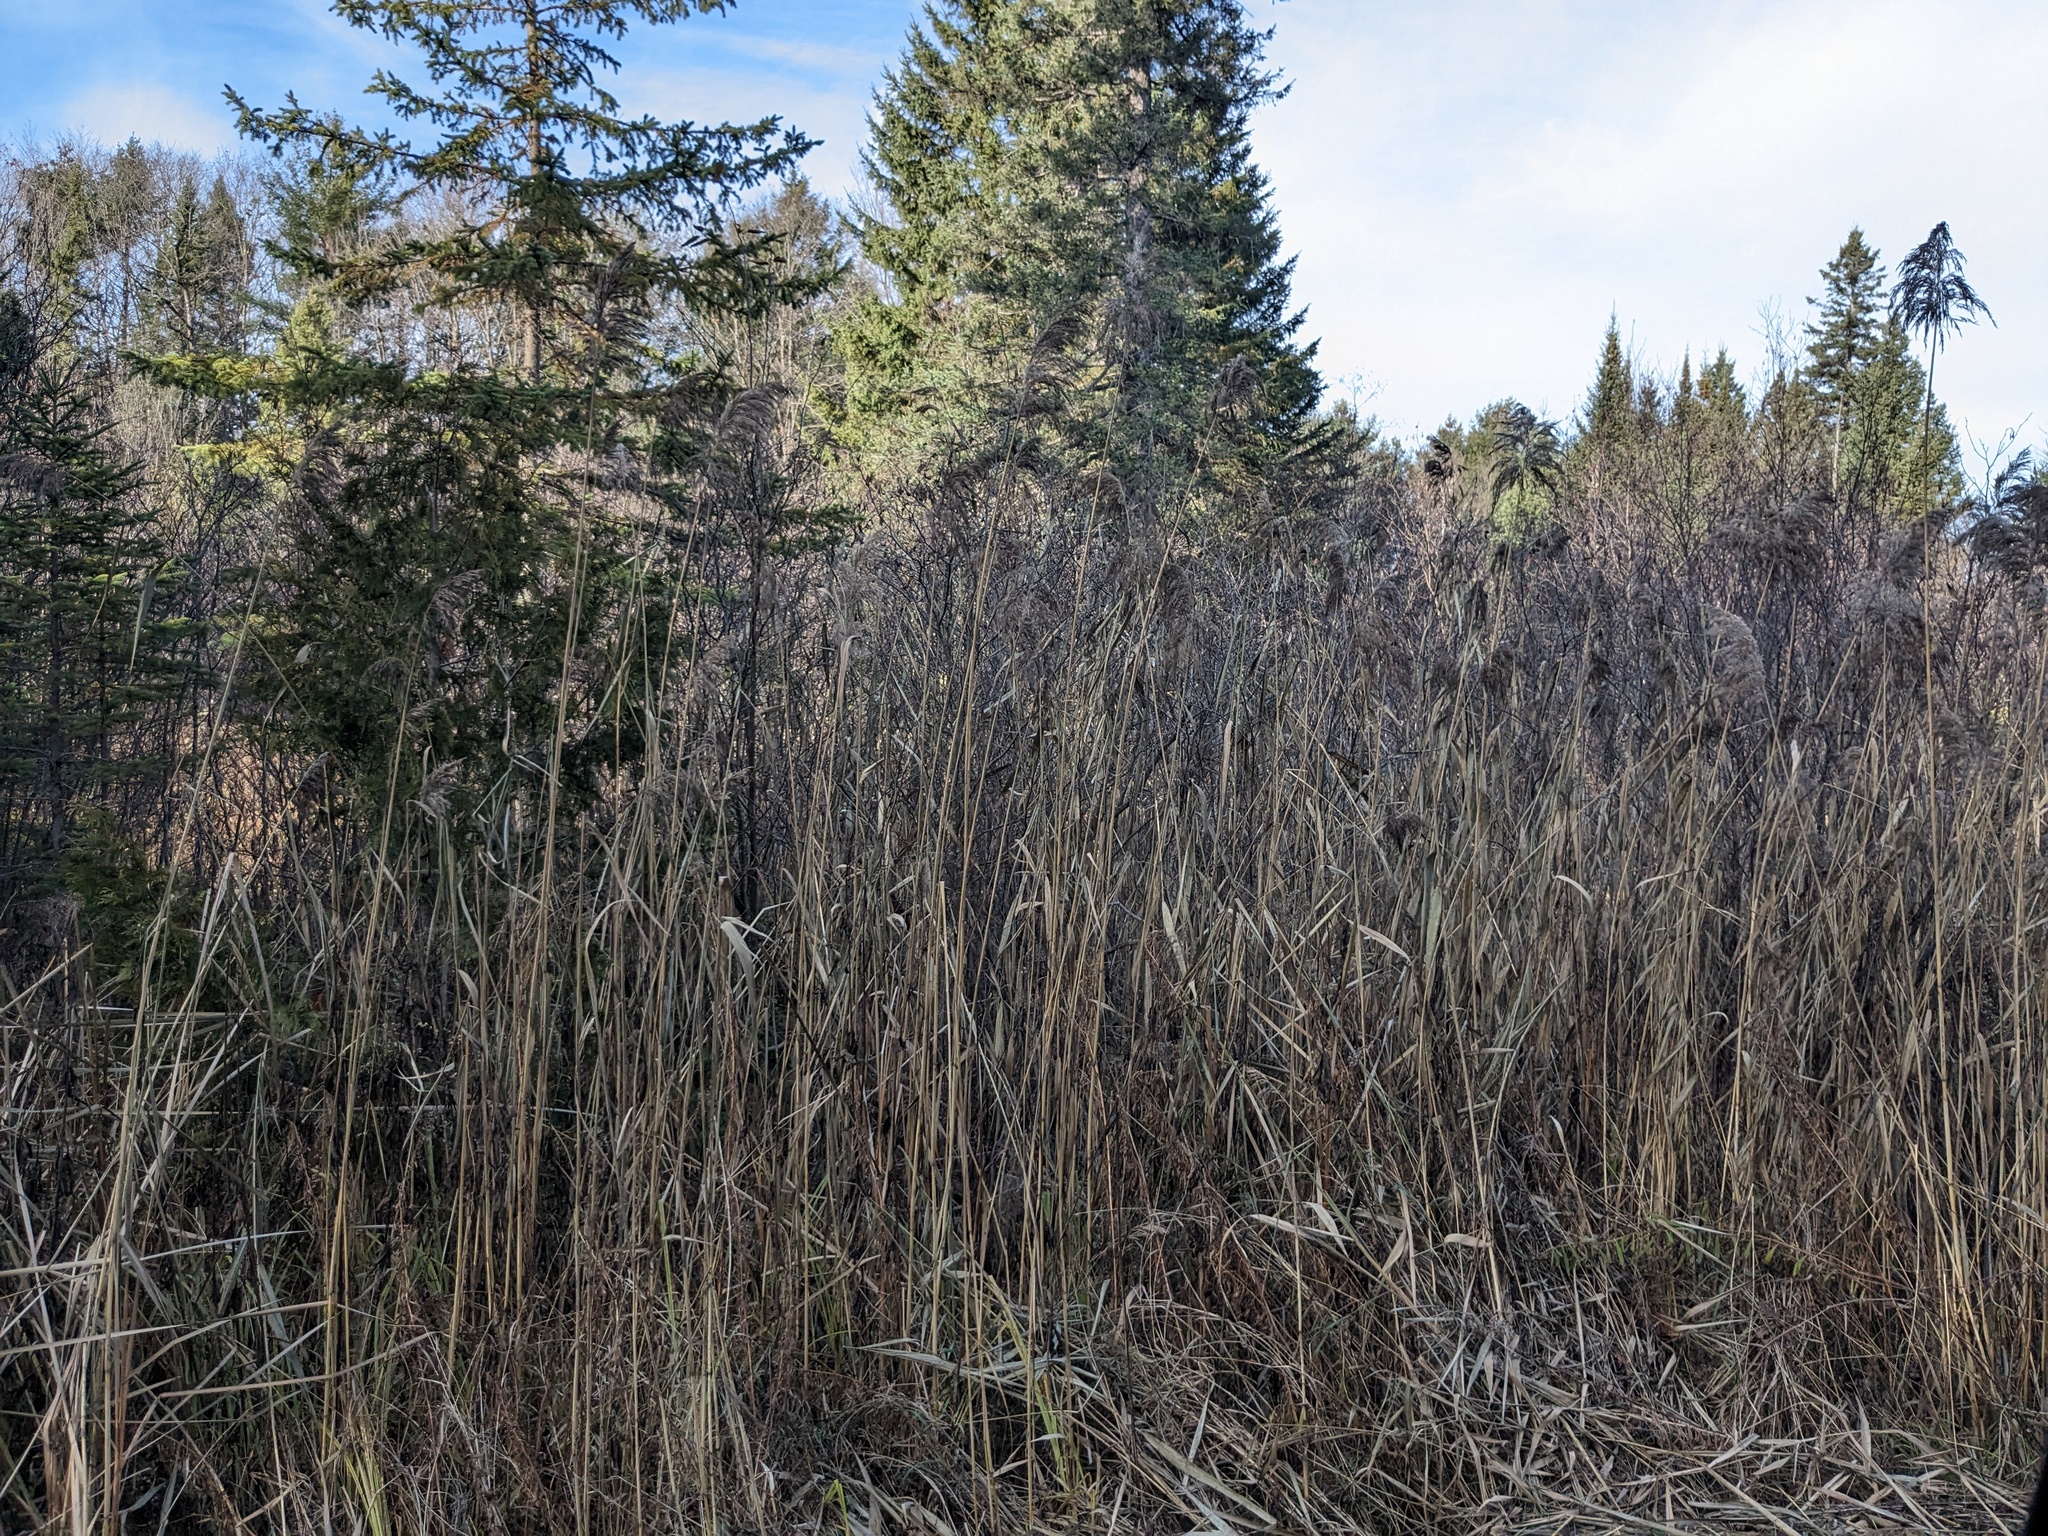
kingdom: Plantae
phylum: Tracheophyta
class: Liliopsida
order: Poales
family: Poaceae
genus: Phragmites
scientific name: Phragmites australis
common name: Common reed
